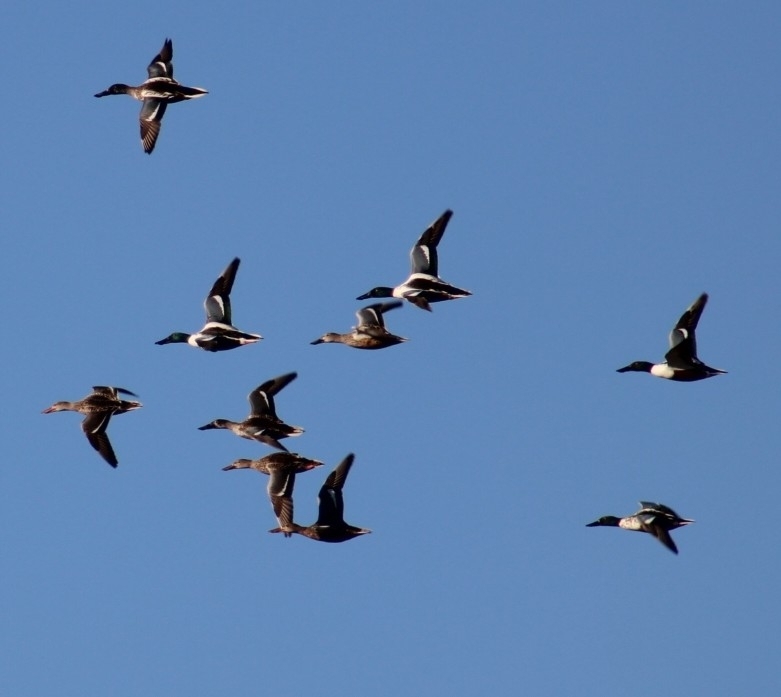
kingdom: Animalia
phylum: Chordata
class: Aves
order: Anseriformes
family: Anatidae
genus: Spatula
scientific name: Spatula clypeata
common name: Northern shoveler
